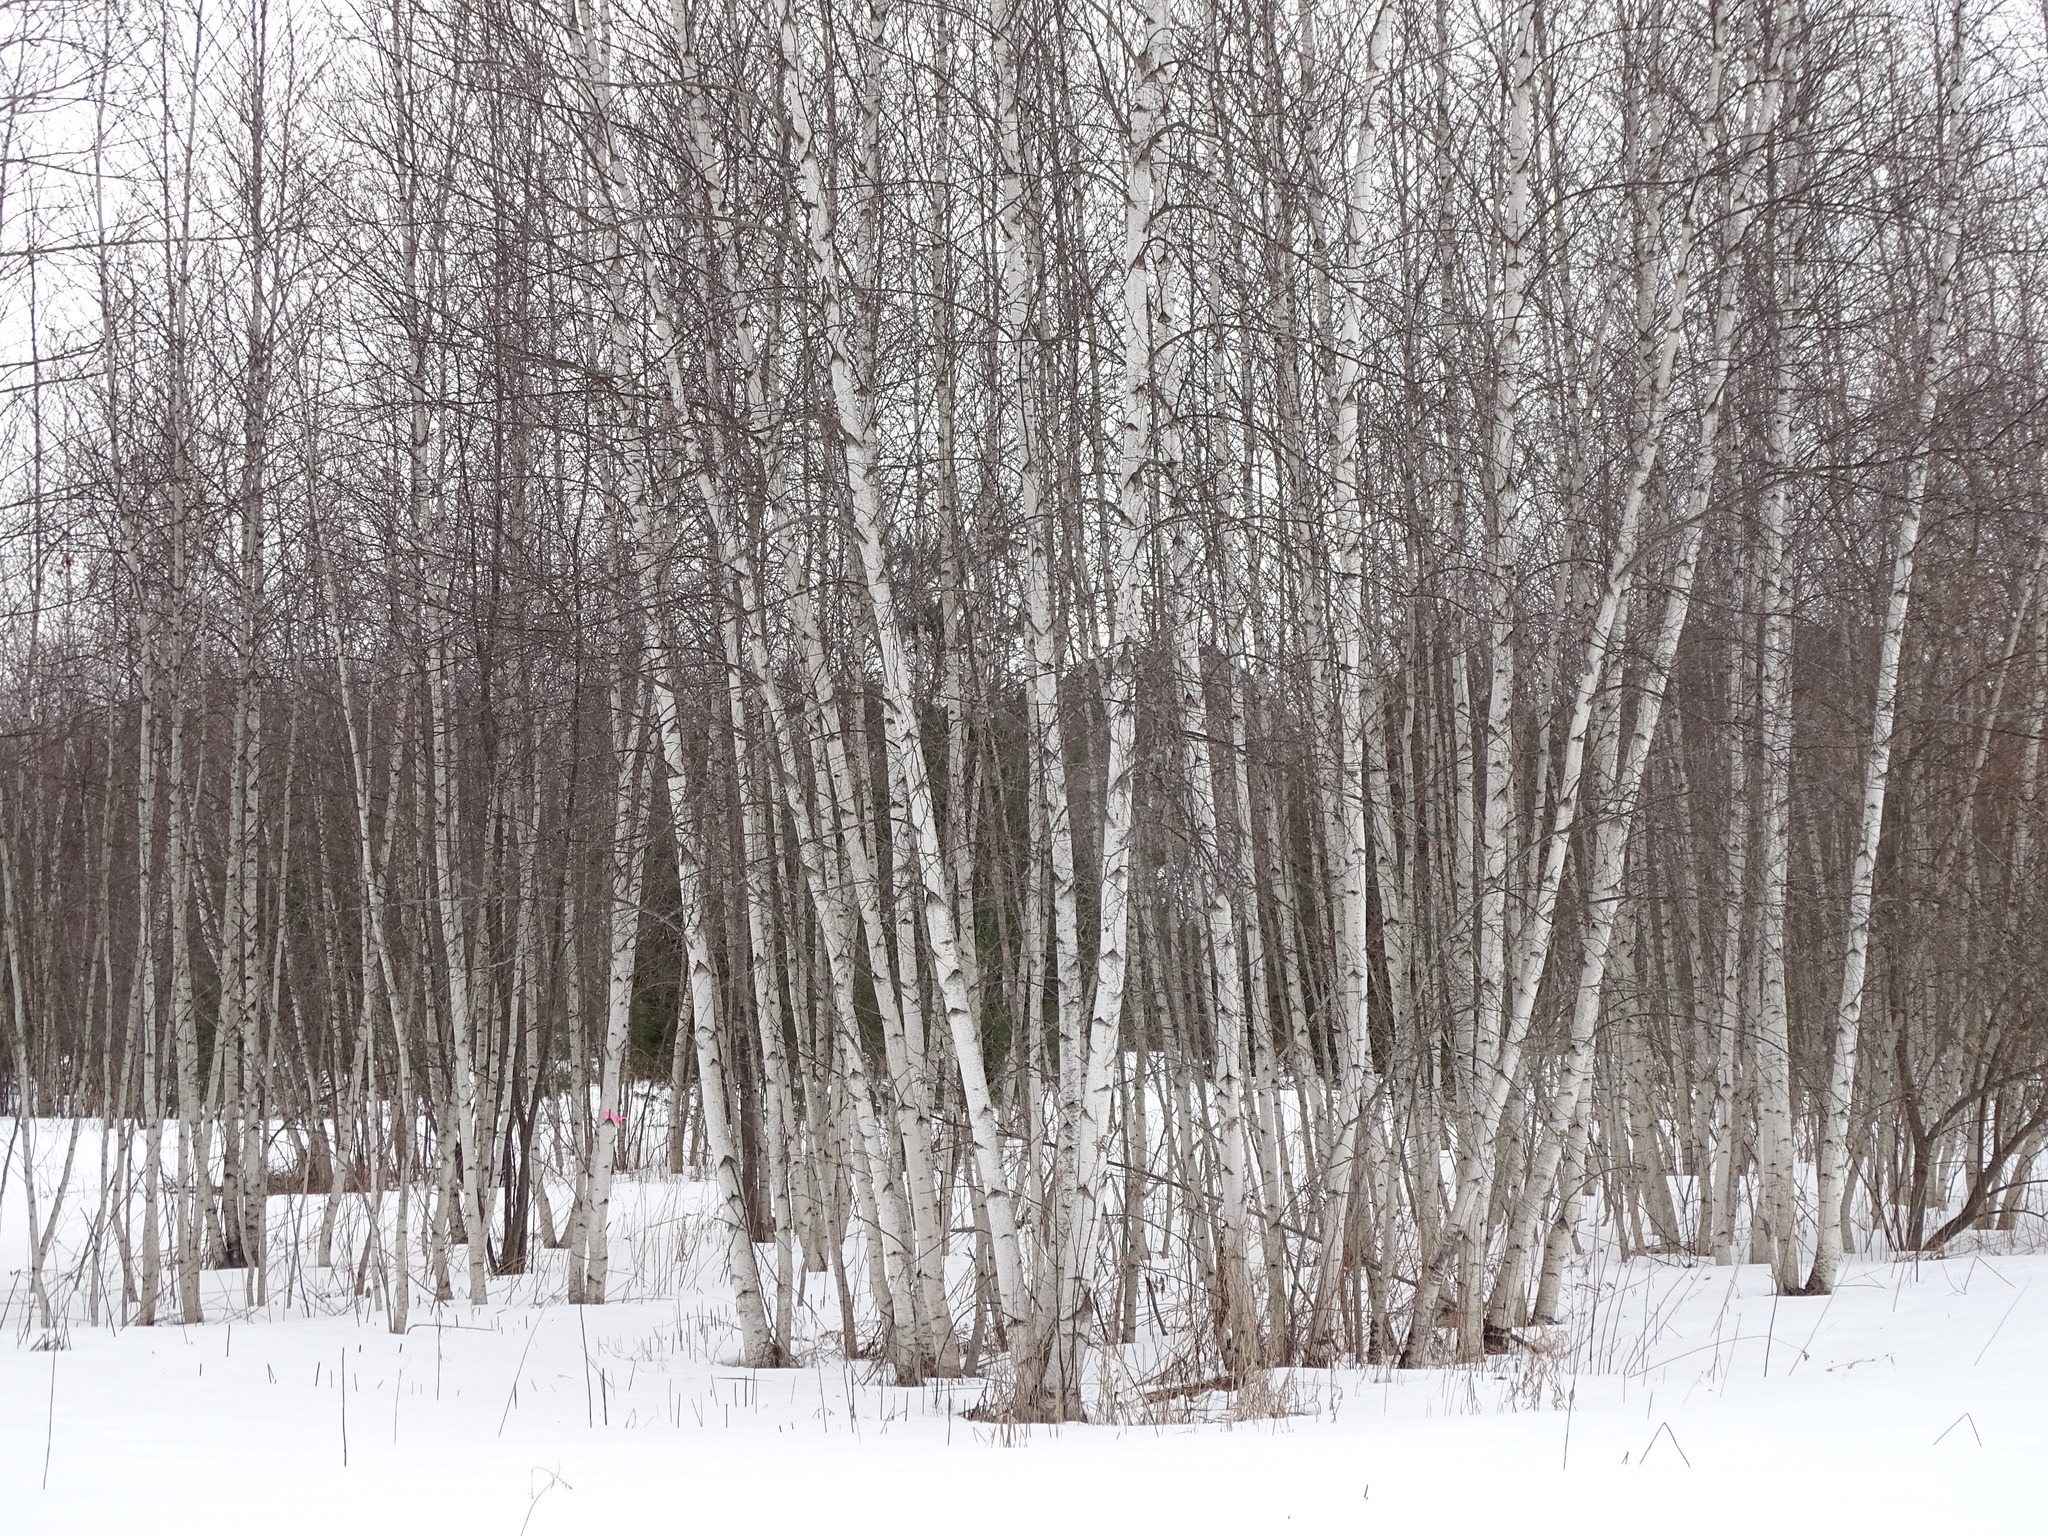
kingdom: Plantae
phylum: Tracheophyta
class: Magnoliopsida
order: Fagales
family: Betulaceae
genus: Betula
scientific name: Betula populifolia
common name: Fire birch
